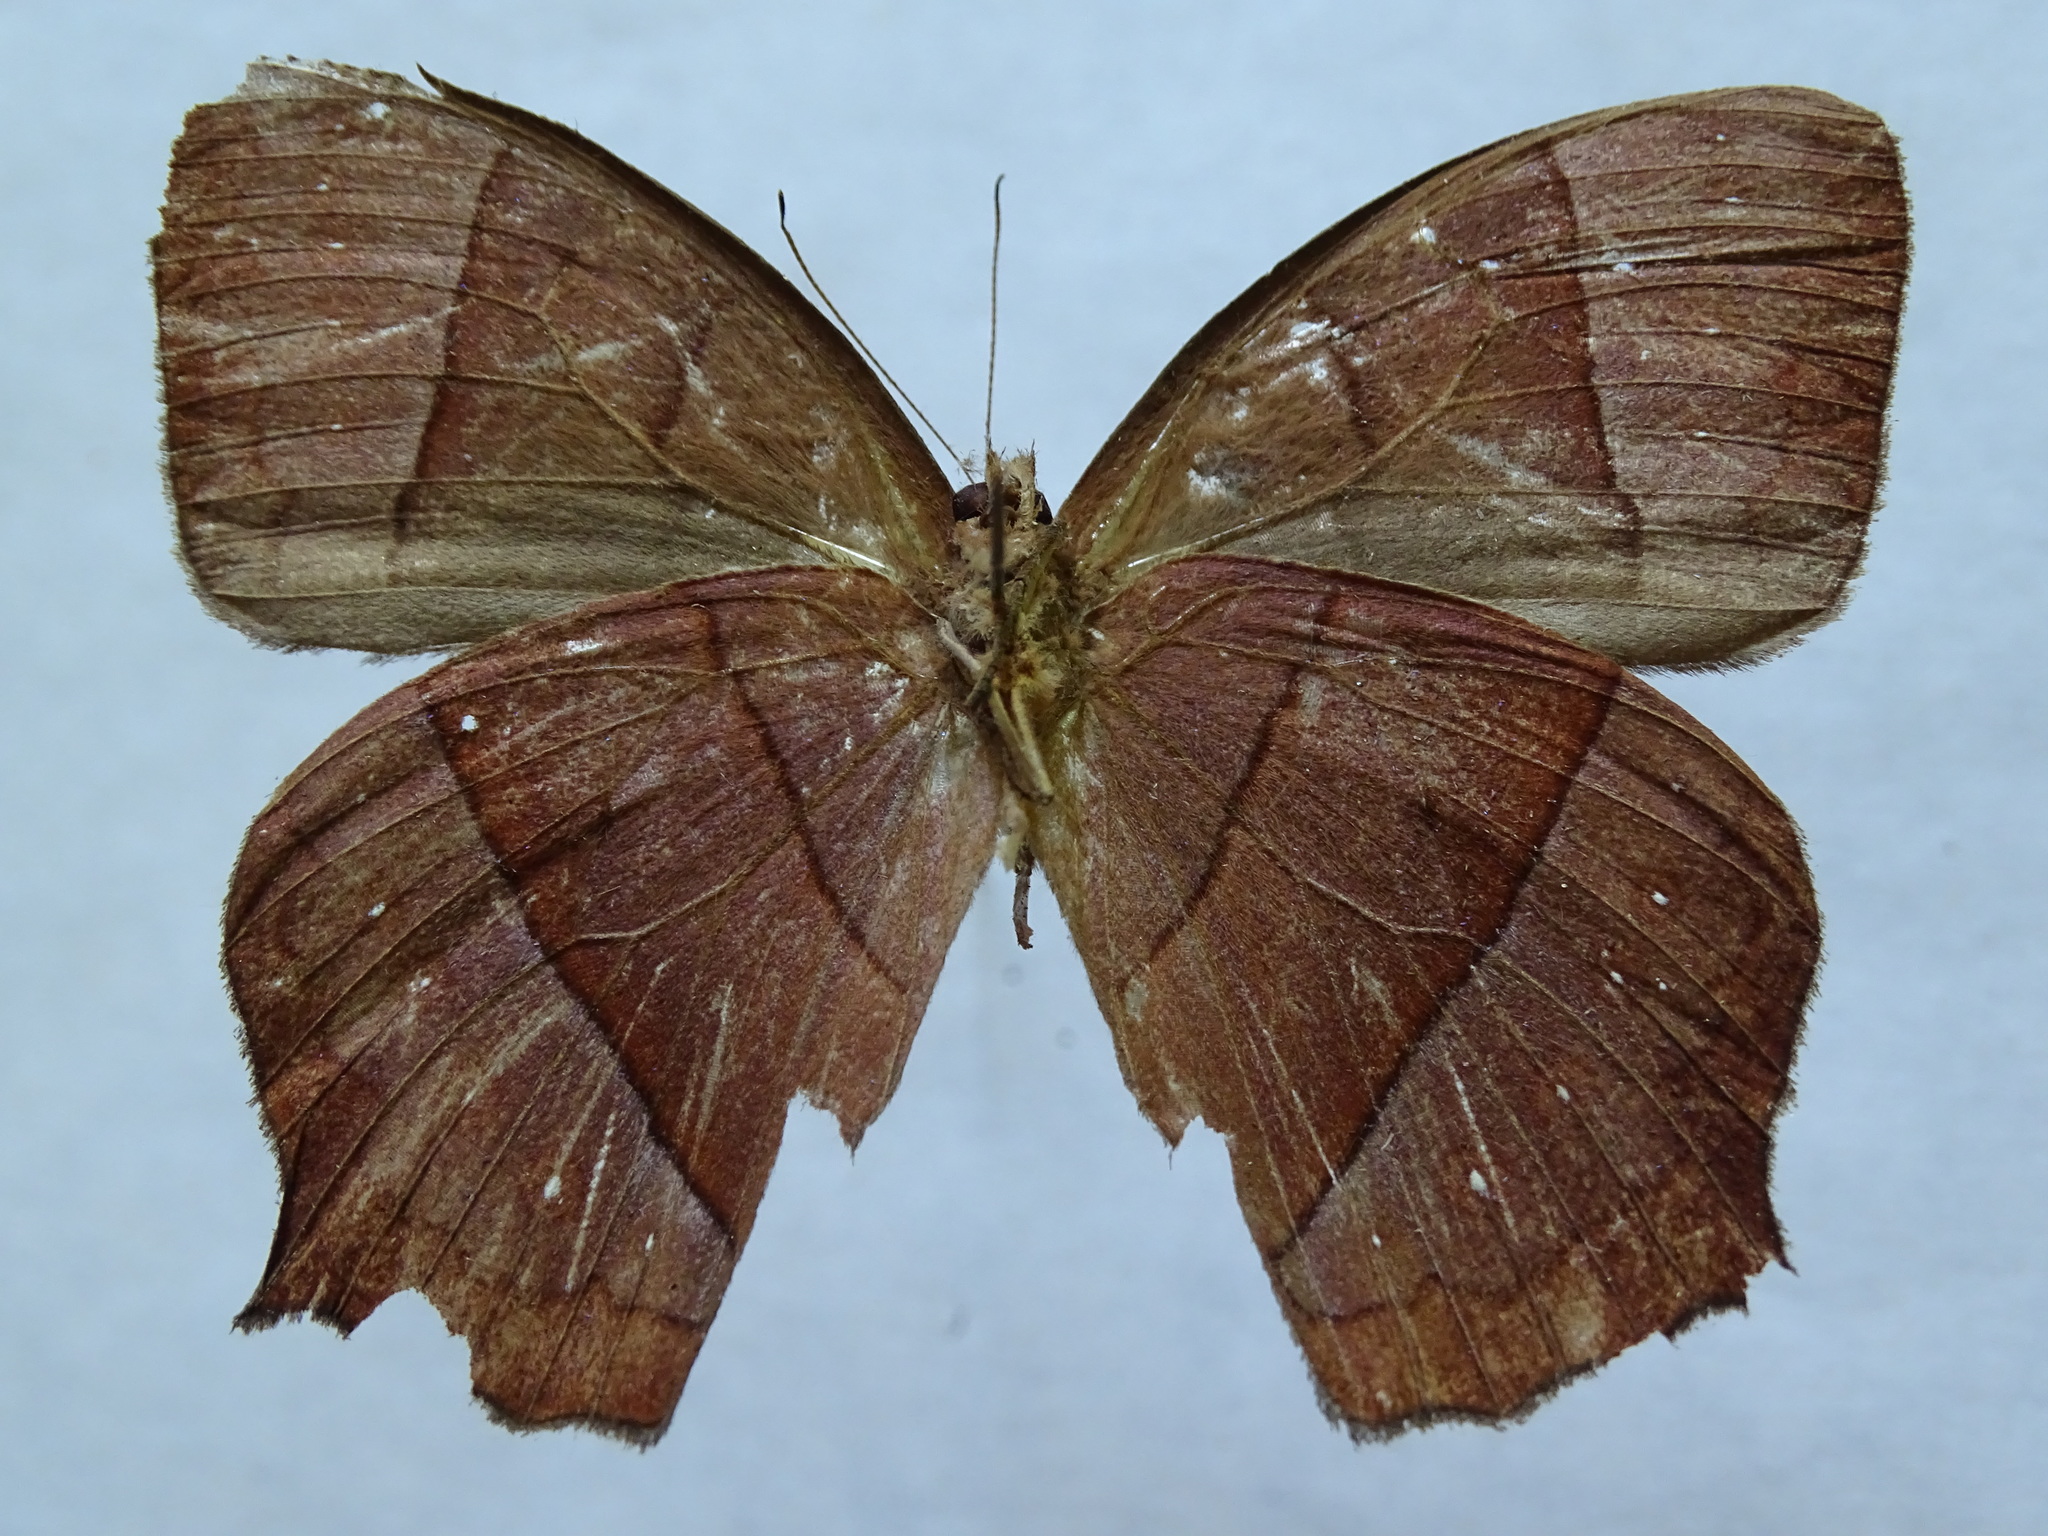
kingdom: Animalia
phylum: Arthropoda
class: Insecta
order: Lepidoptera
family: Nymphalidae
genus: Taygetis
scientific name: Taygetis virgilia
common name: Stub-tailed satyr
